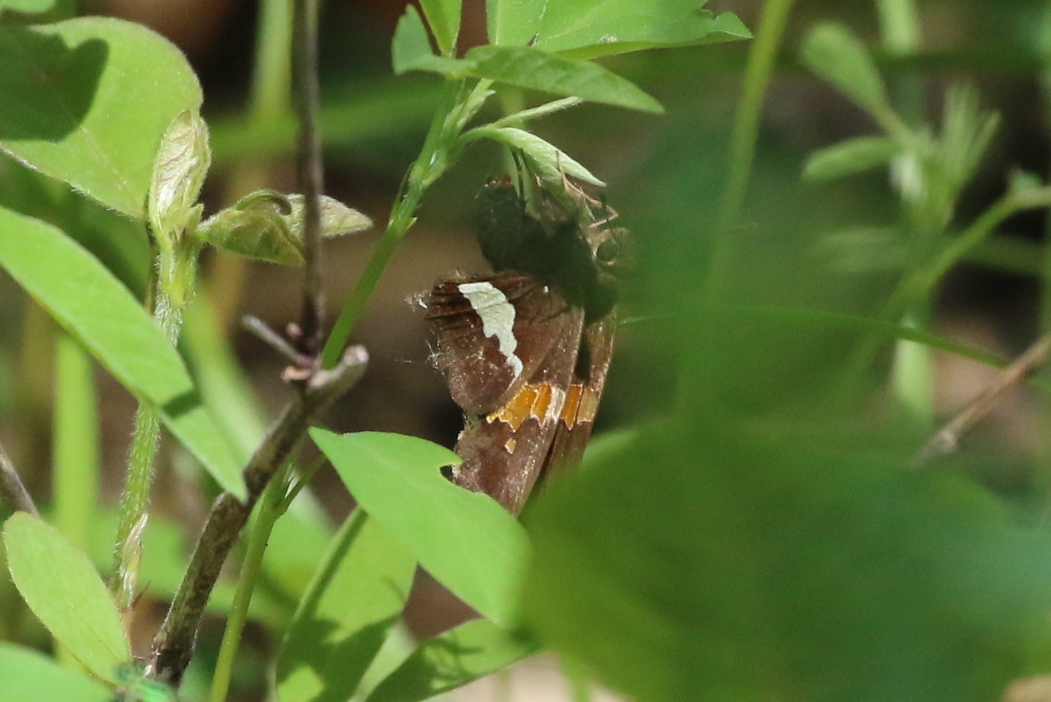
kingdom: Animalia
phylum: Arthropoda
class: Insecta
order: Lepidoptera
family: Hesperiidae
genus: Epargyreus
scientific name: Epargyreus clarus
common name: Silver-spotted skipper
